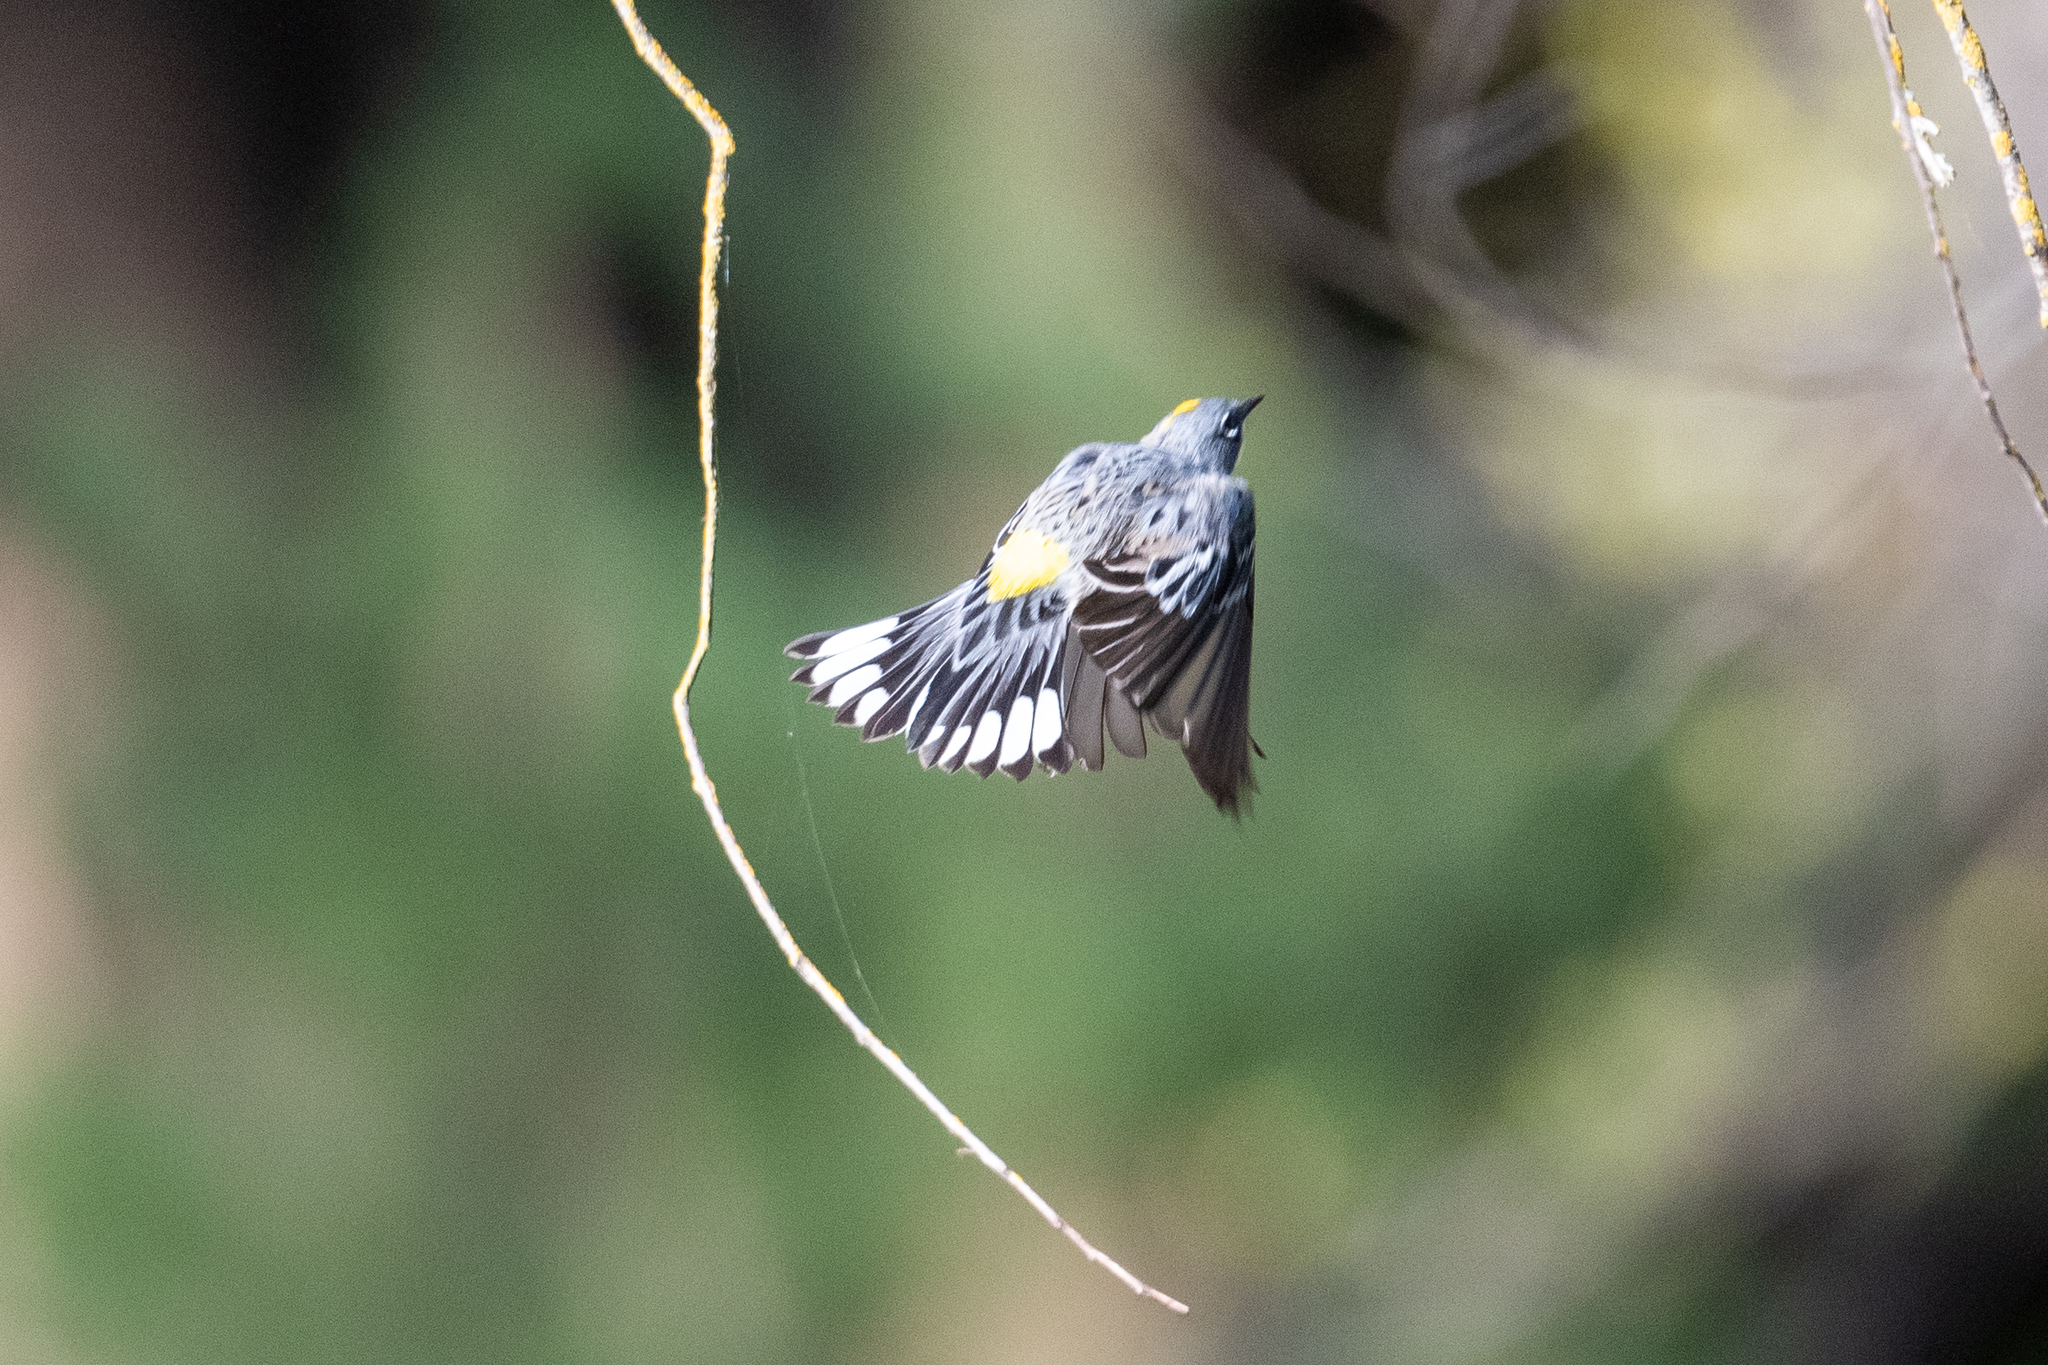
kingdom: Animalia
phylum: Chordata
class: Aves
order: Passeriformes
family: Parulidae
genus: Setophaga
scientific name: Setophaga coronata
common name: Myrtle warbler
